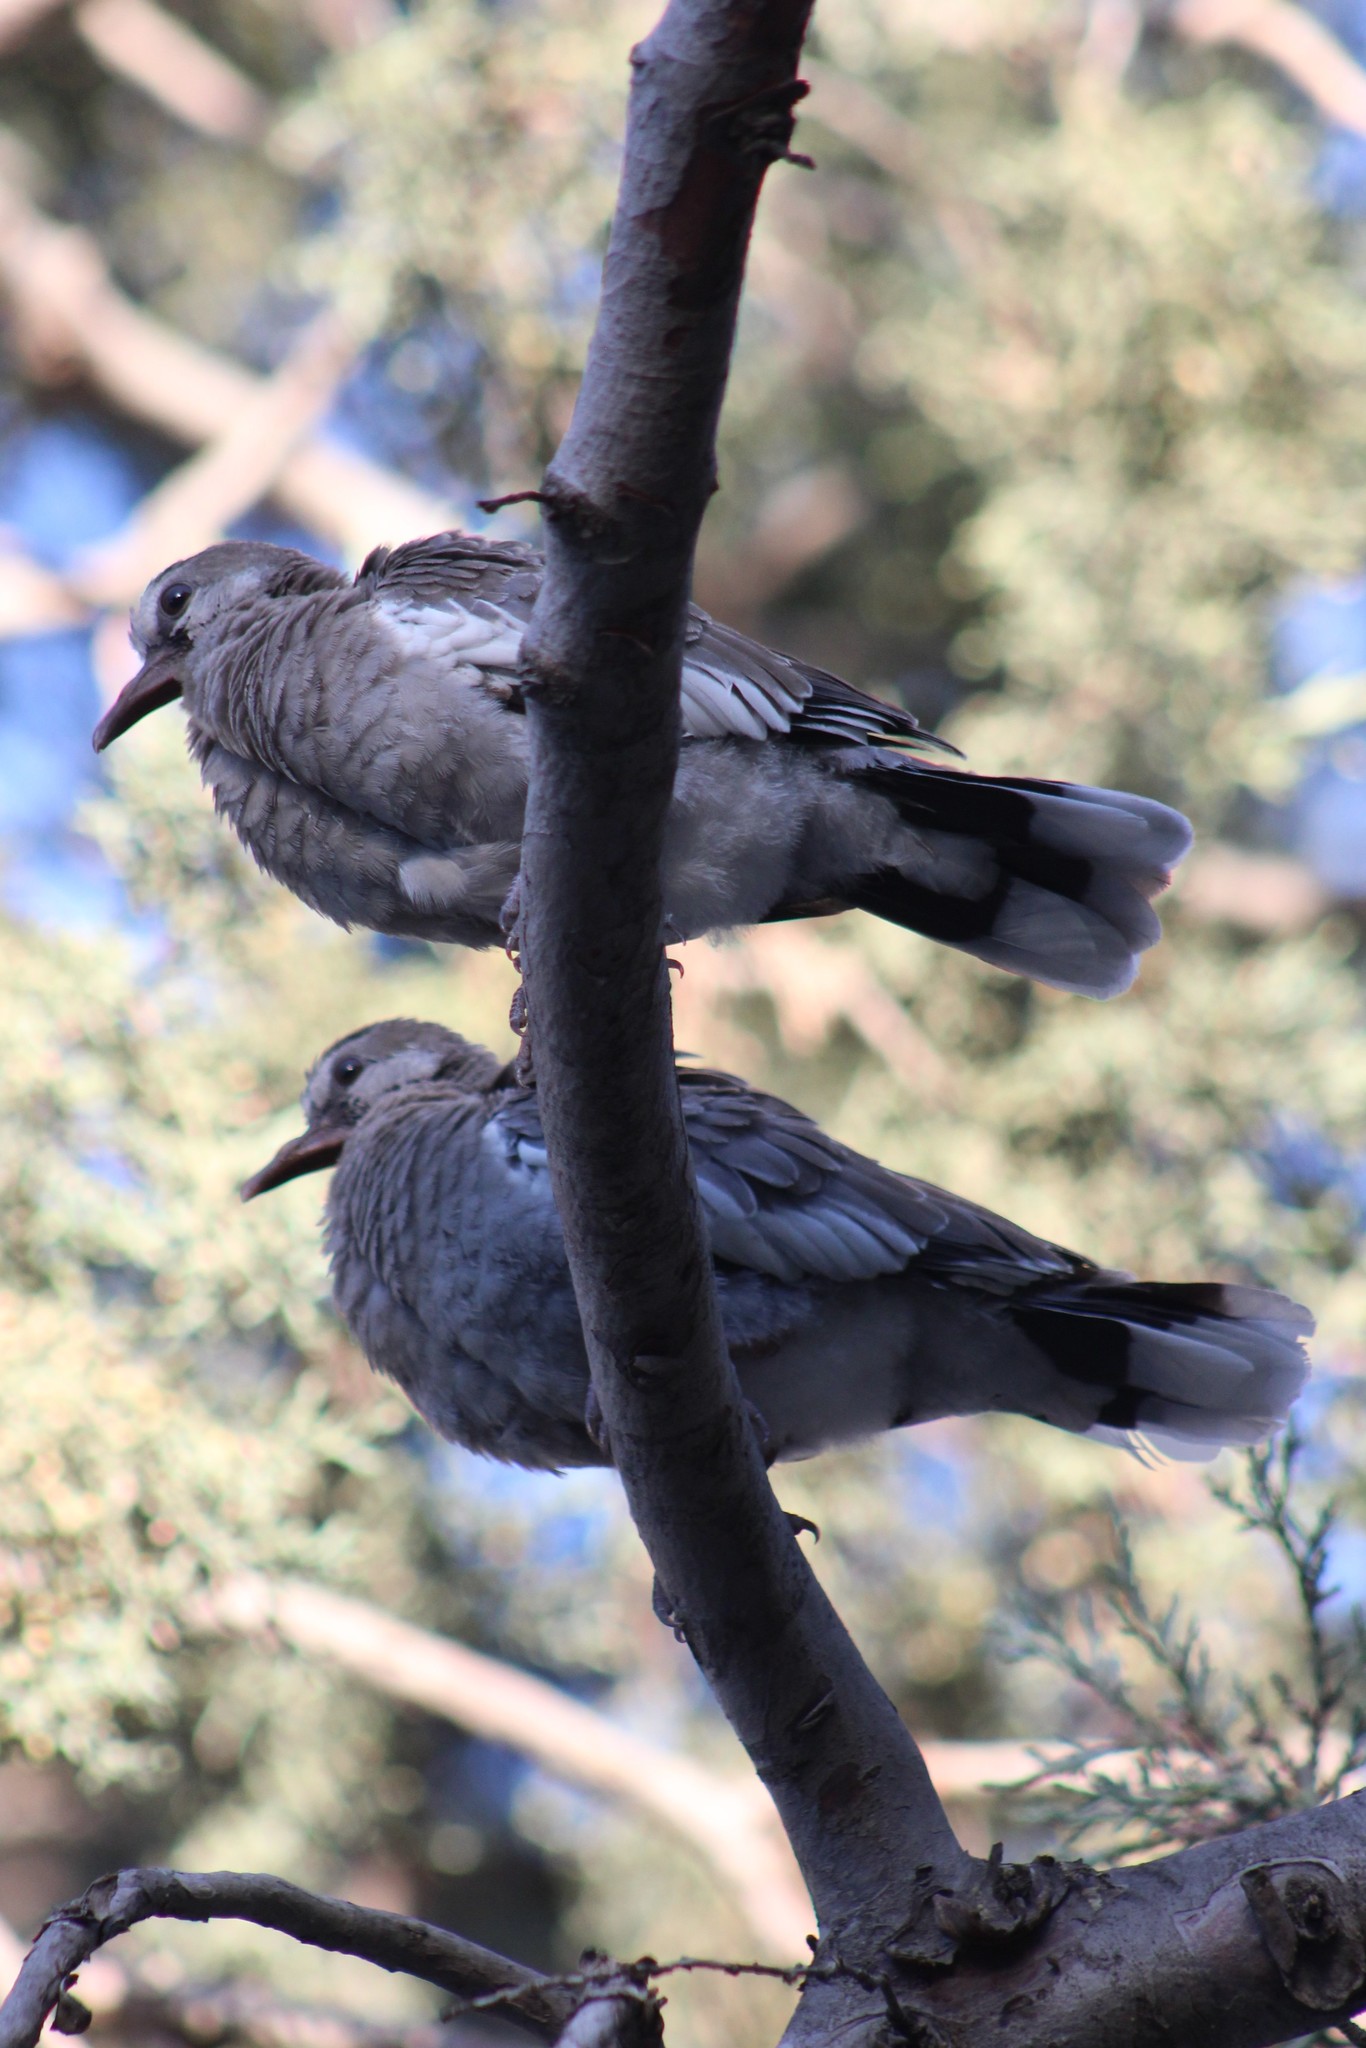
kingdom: Animalia
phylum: Chordata
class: Aves
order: Columbiformes
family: Columbidae
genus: Zenaida
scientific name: Zenaida asiatica
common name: White-winged dove
